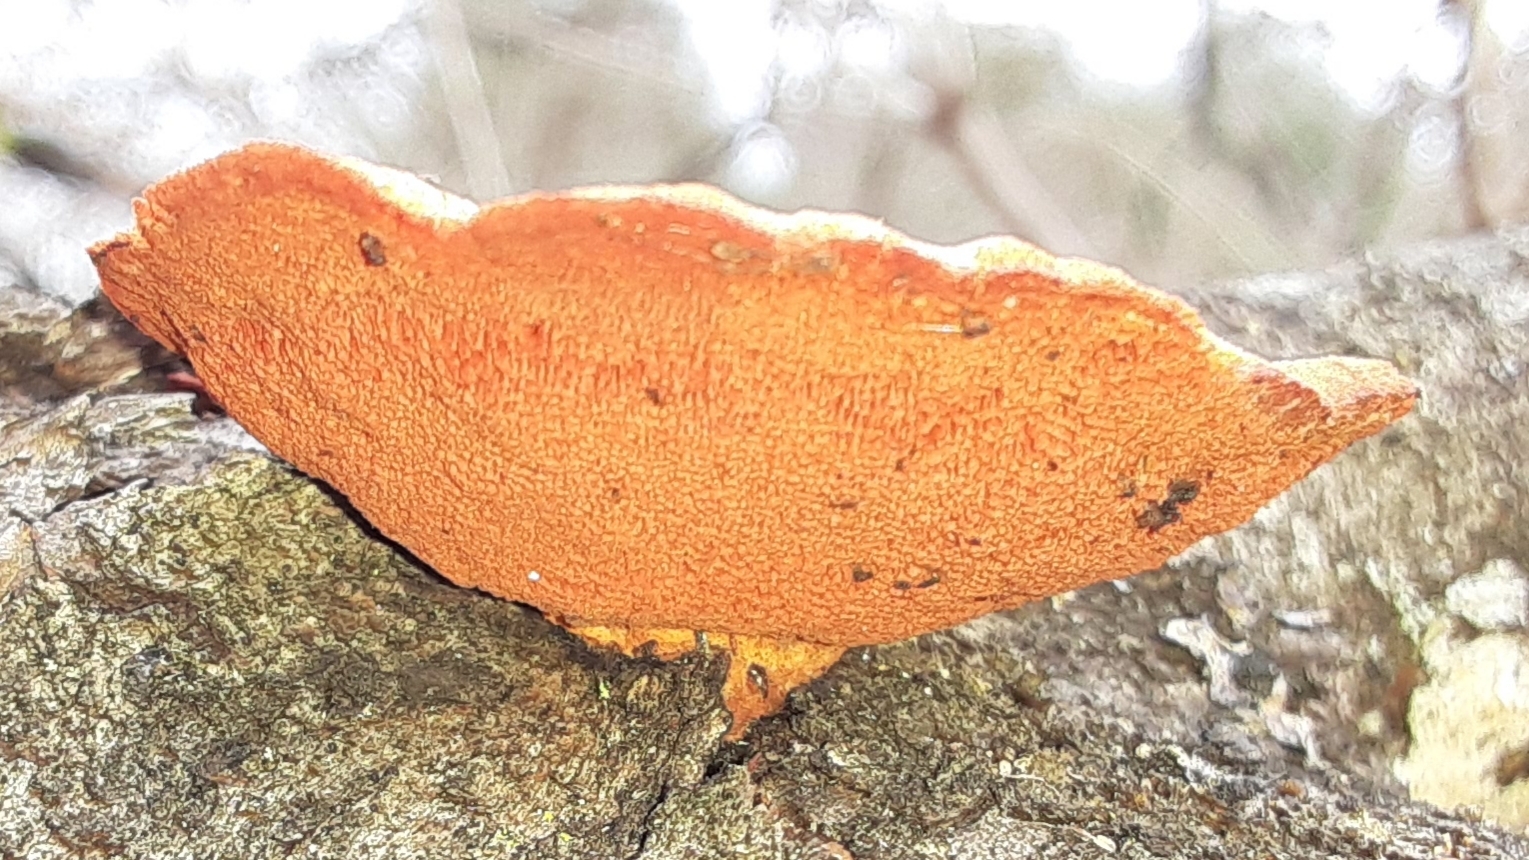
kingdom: Fungi
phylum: Basidiomycota
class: Agaricomycetes
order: Polyporales
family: Polyporaceae
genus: Trametes
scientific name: Trametes cinnabarina
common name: Northern cinnabar polypore
